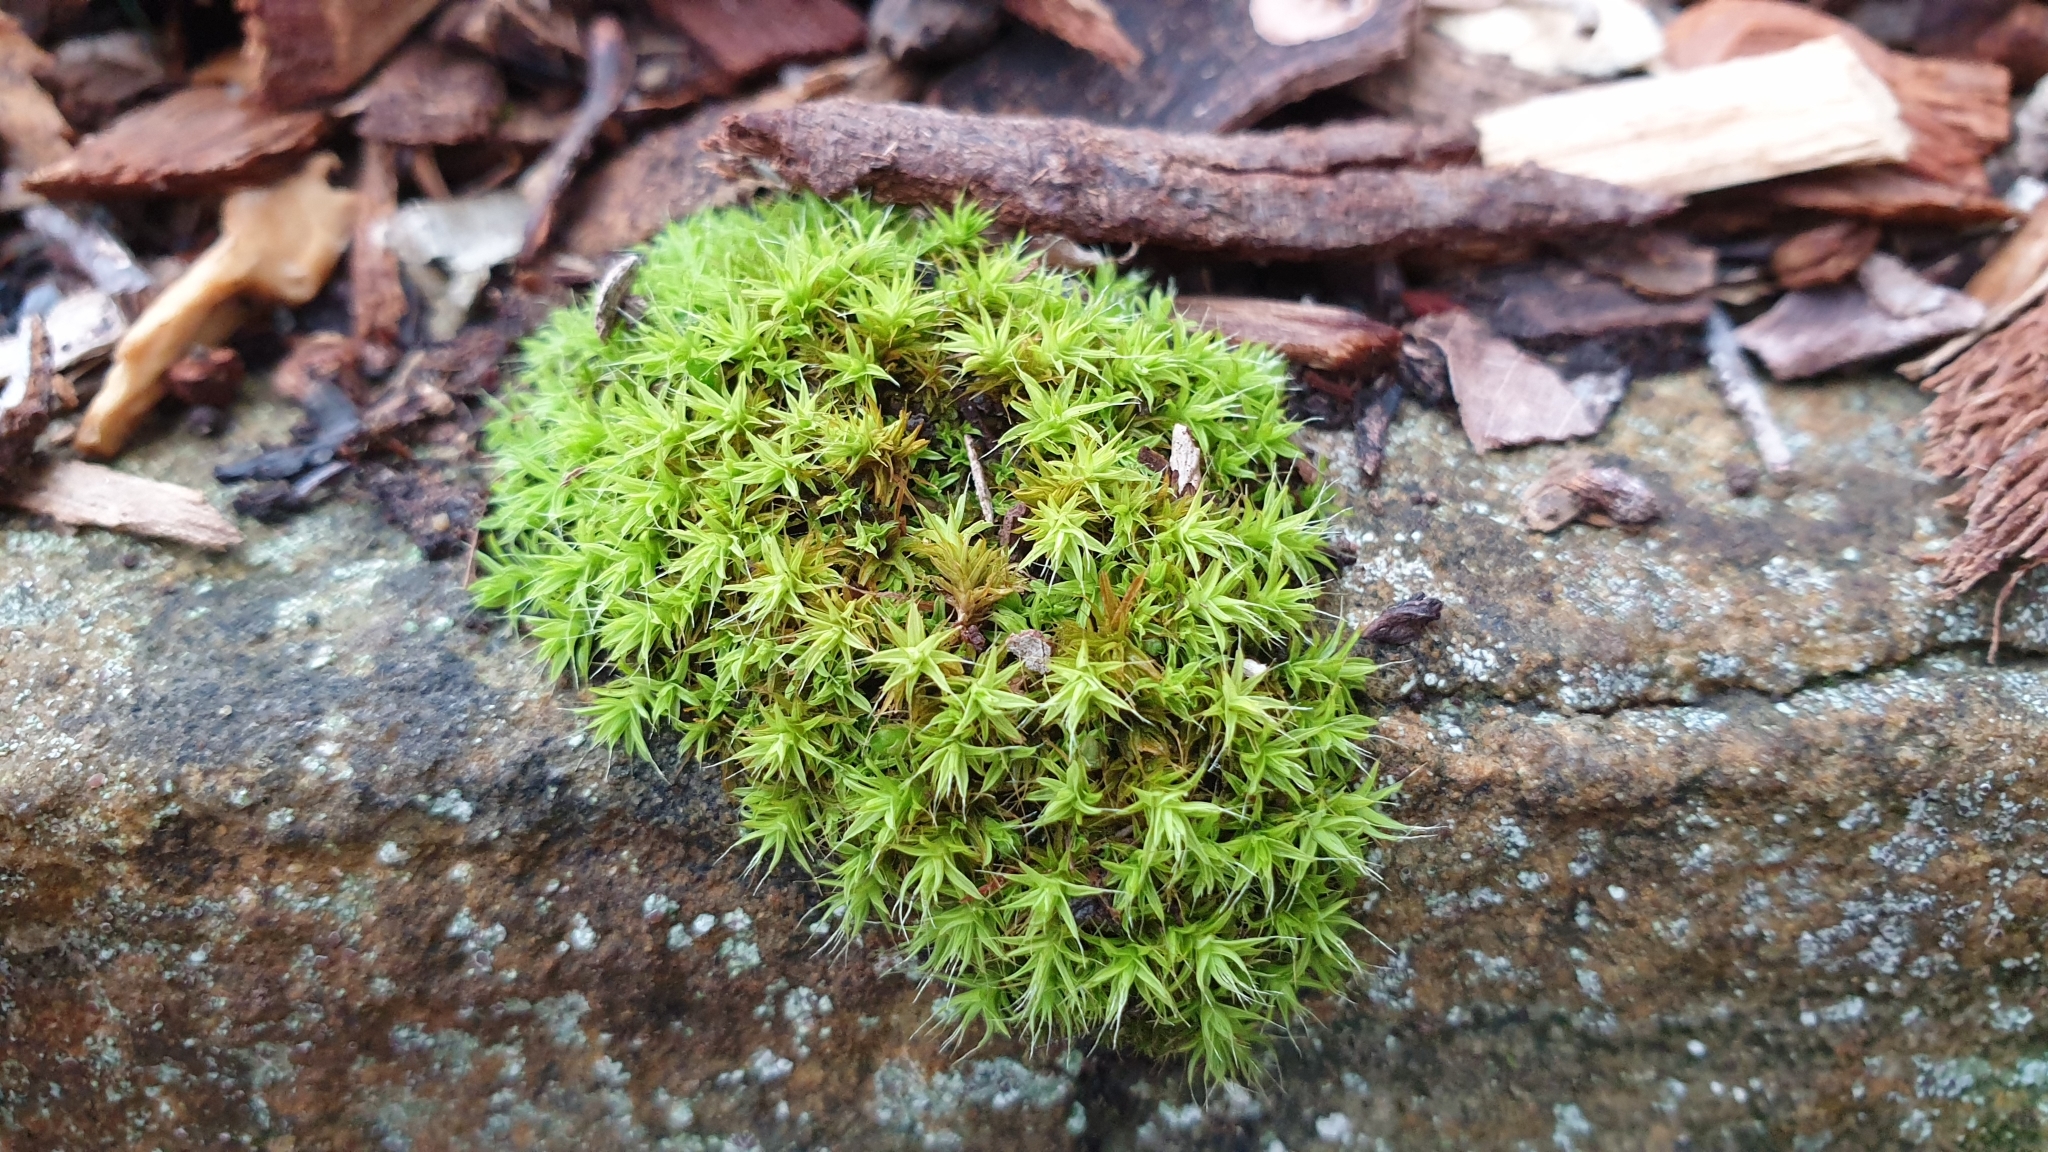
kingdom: Plantae
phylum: Bryophyta
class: Bryopsida
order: Pottiales
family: Pottiaceae
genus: Pseudocrossidium
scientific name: Pseudocrossidium crinitum
